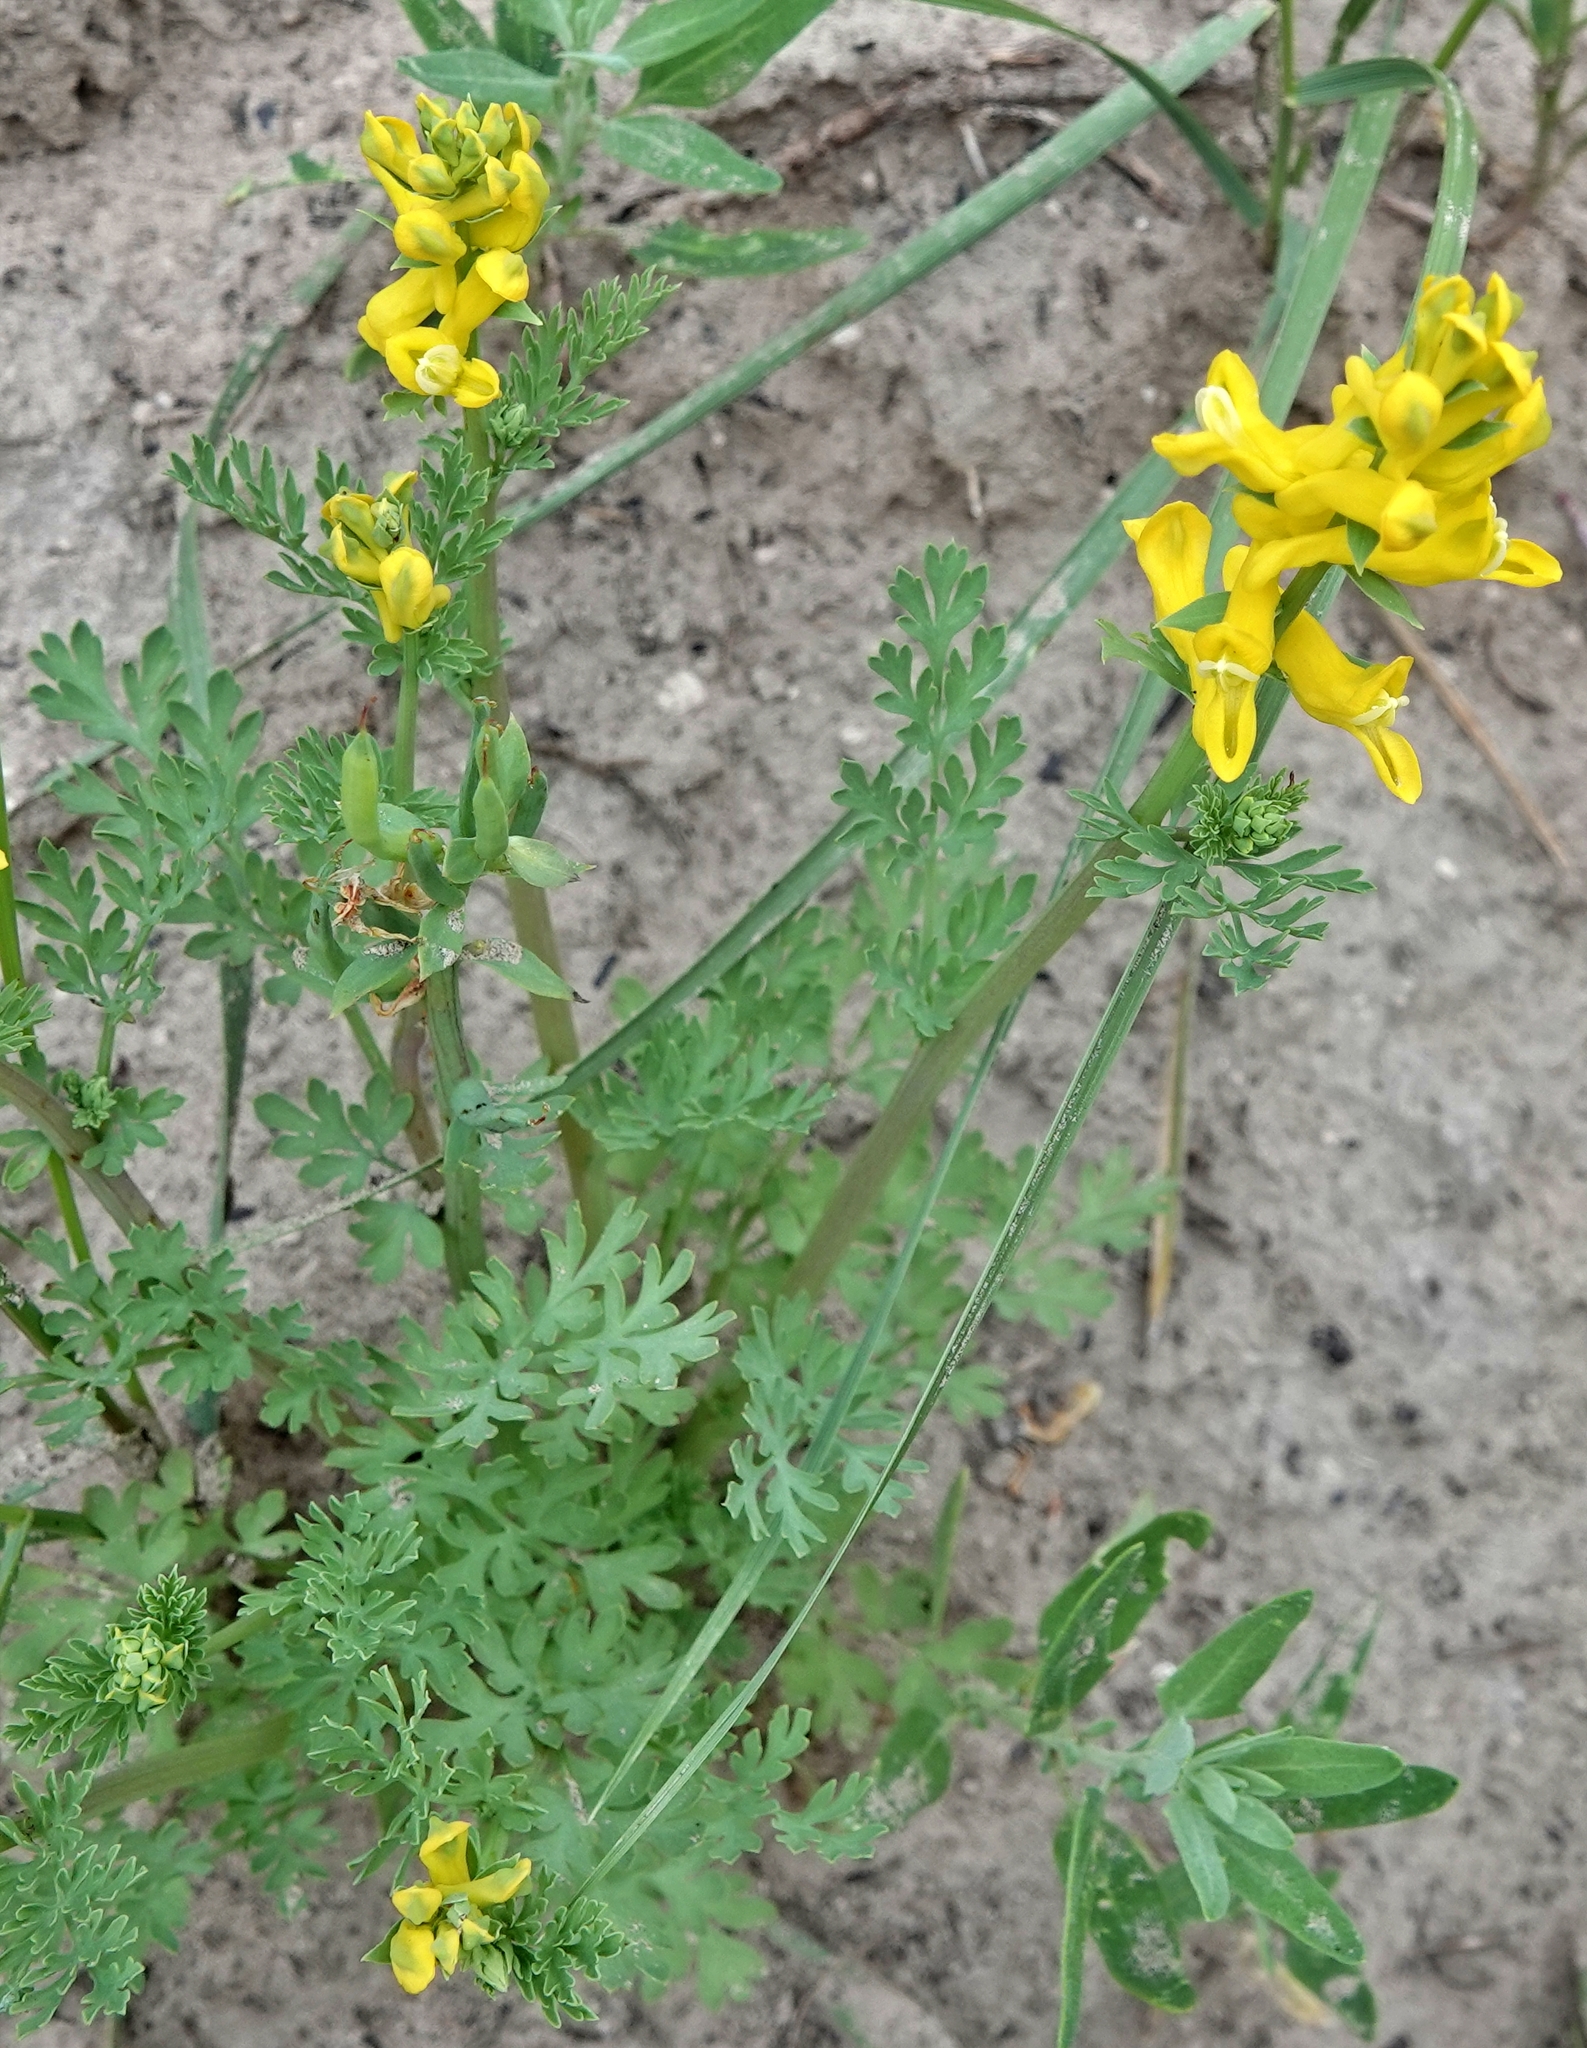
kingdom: Plantae
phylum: Tracheophyta
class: Magnoliopsida
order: Ranunculales
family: Papaveraceae
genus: Corydalis
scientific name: Corydalis aurea
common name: Golden corydalis
